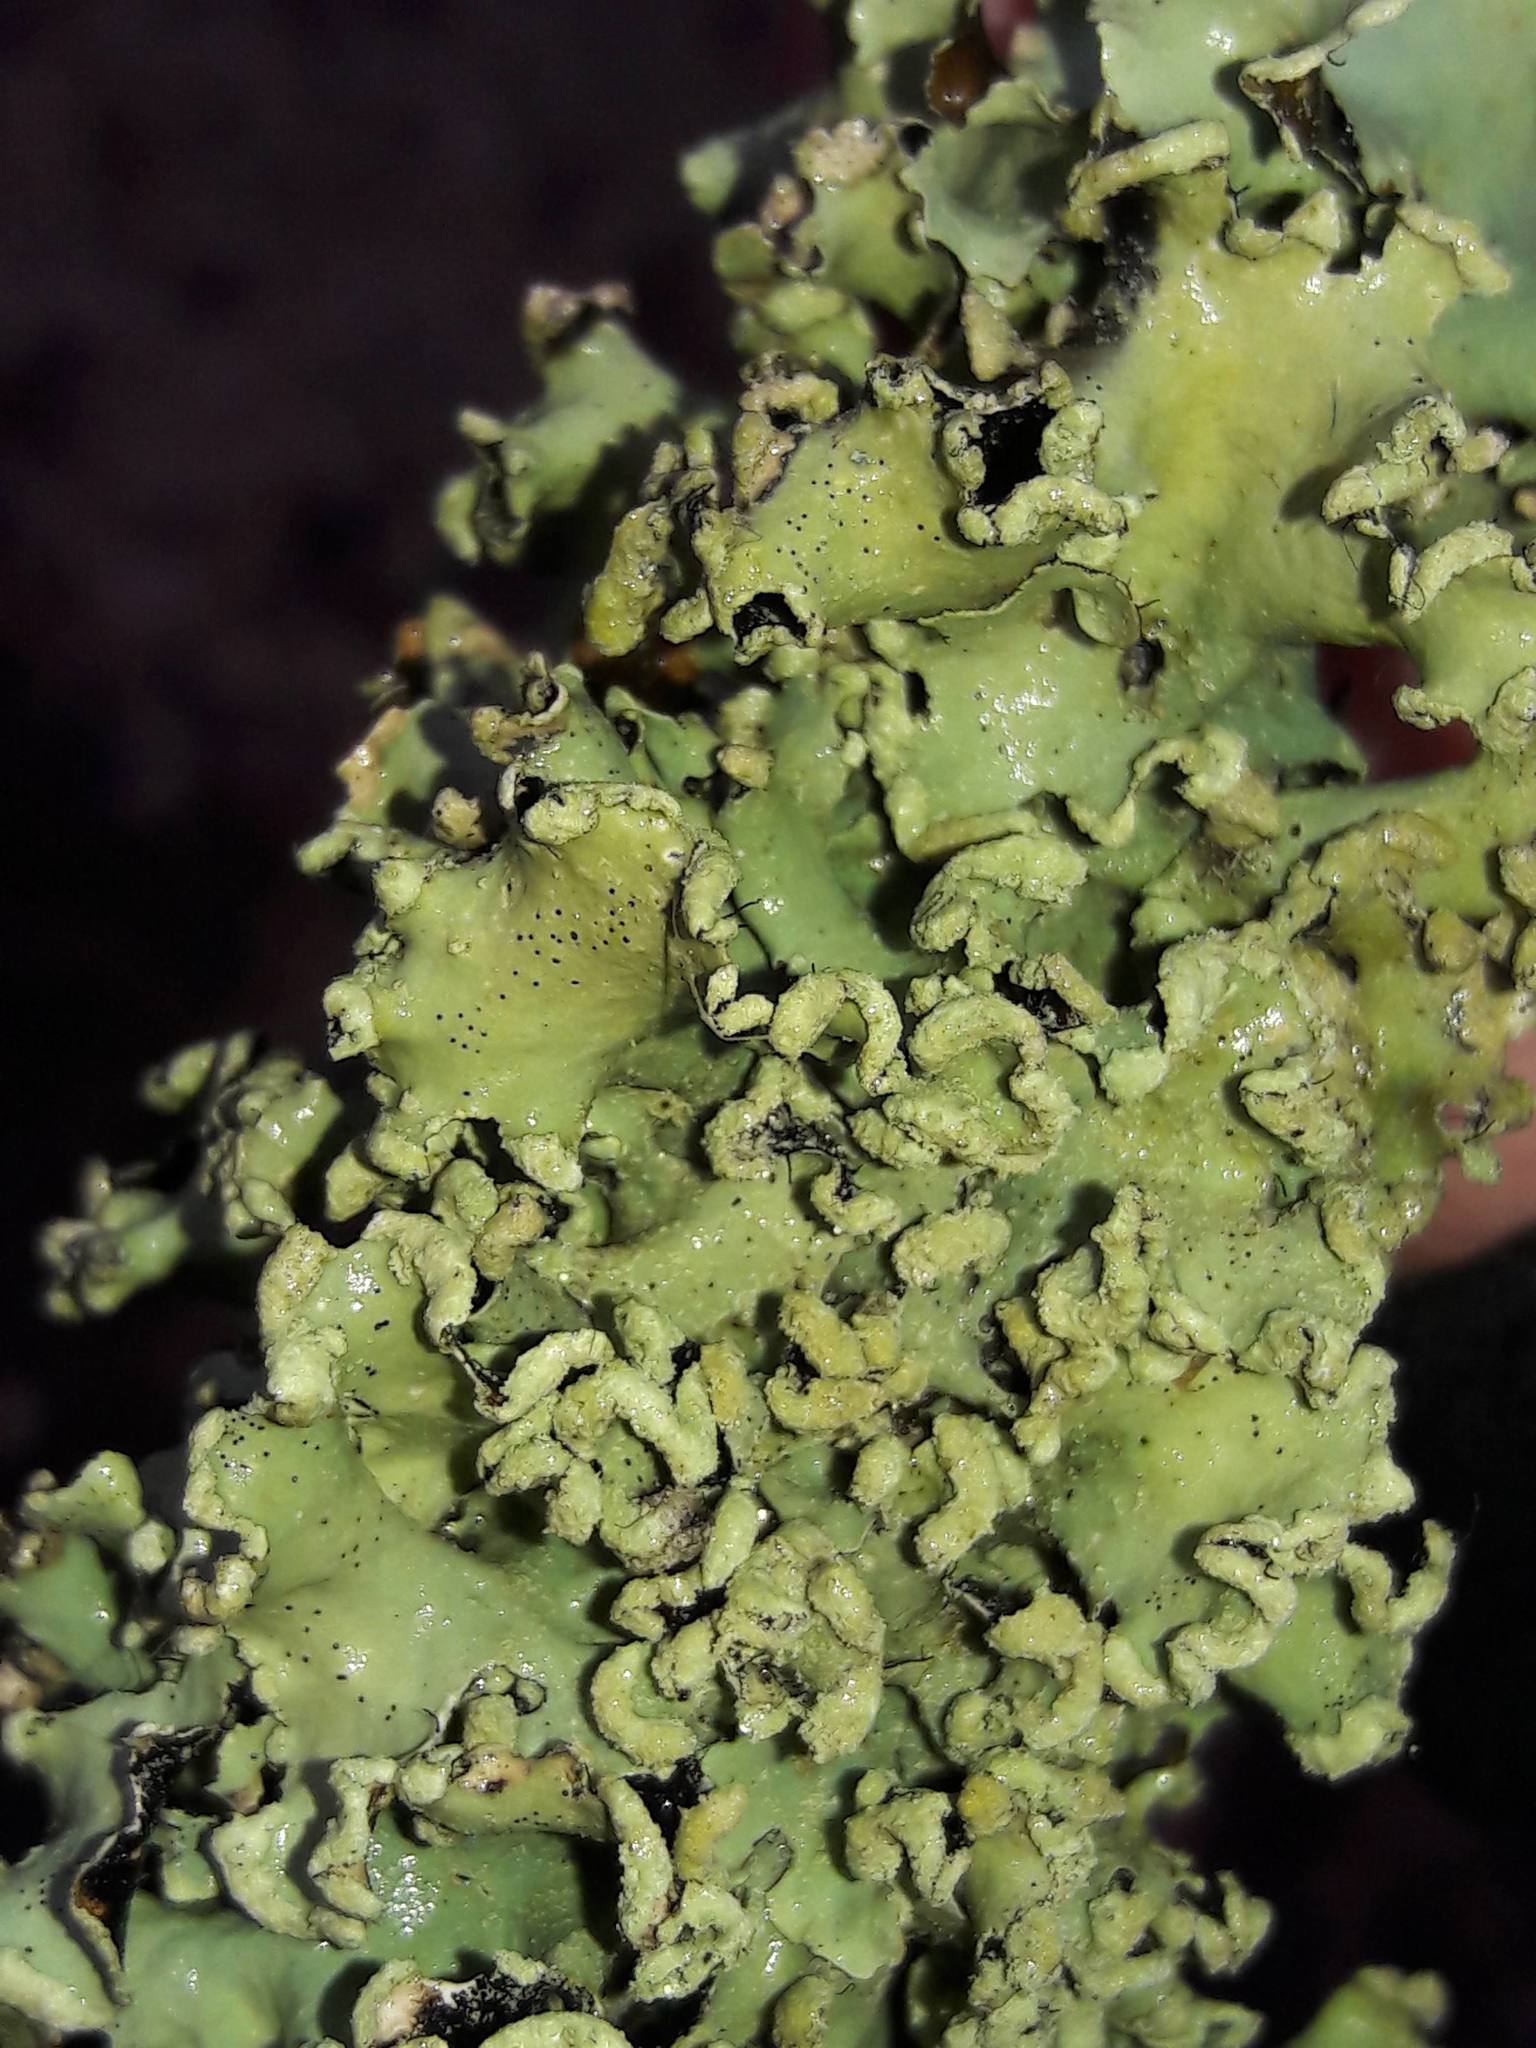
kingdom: Fungi
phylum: Ascomycota
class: Lecanoromycetes
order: Lecanorales
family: Parmeliaceae
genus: Parmotrema
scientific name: Parmotrema
